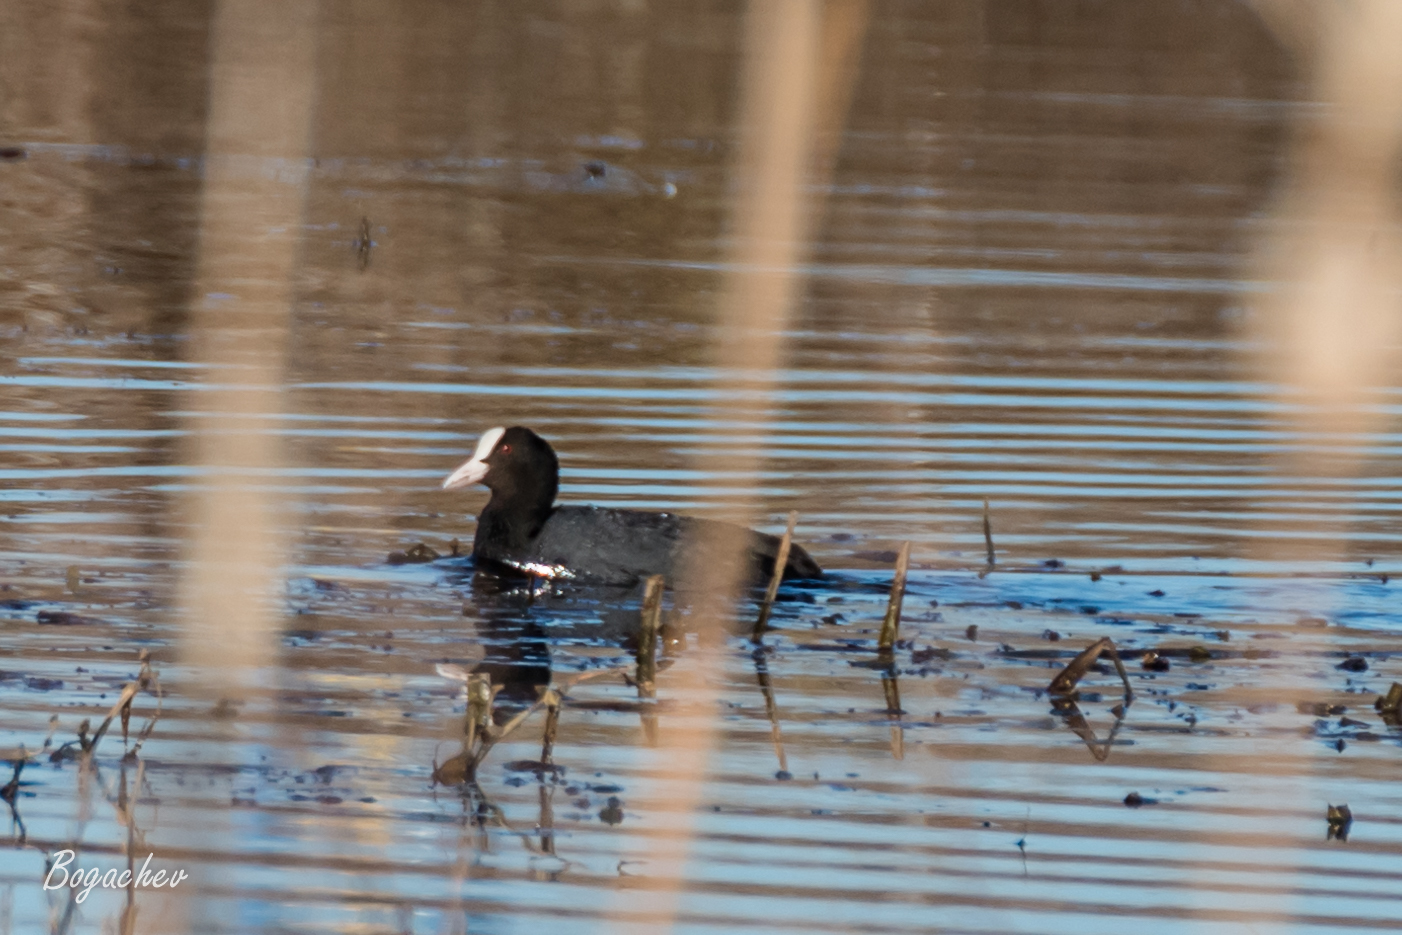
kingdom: Animalia
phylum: Chordata
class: Aves
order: Gruiformes
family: Rallidae
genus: Fulica
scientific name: Fulica atra
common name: Eurasian coot
